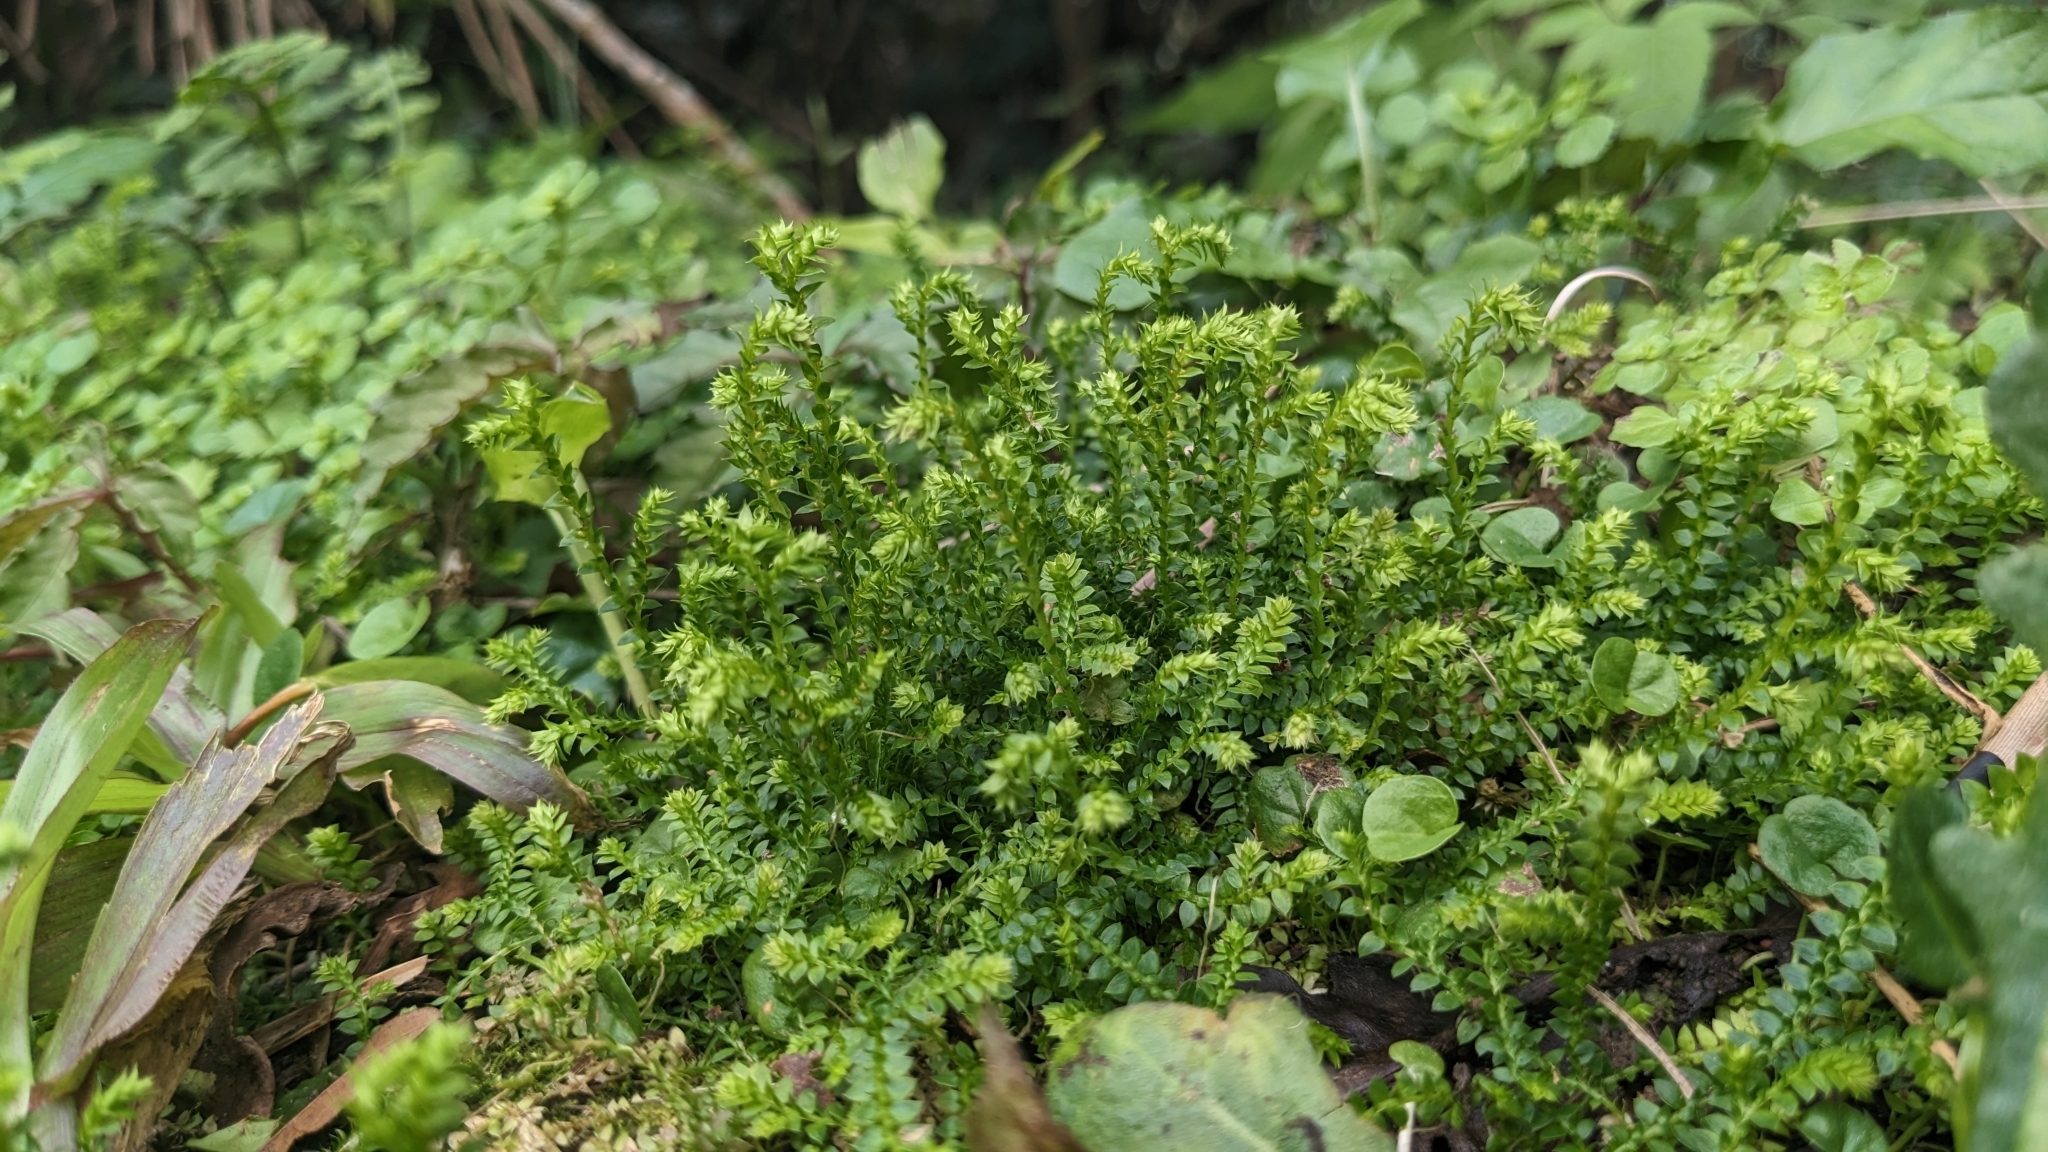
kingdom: Plantae
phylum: Tracheophyta
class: Lycopodiopsida
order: Selaginellales
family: Selaginellaceae
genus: Selaginella
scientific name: Selaginella nipponica
